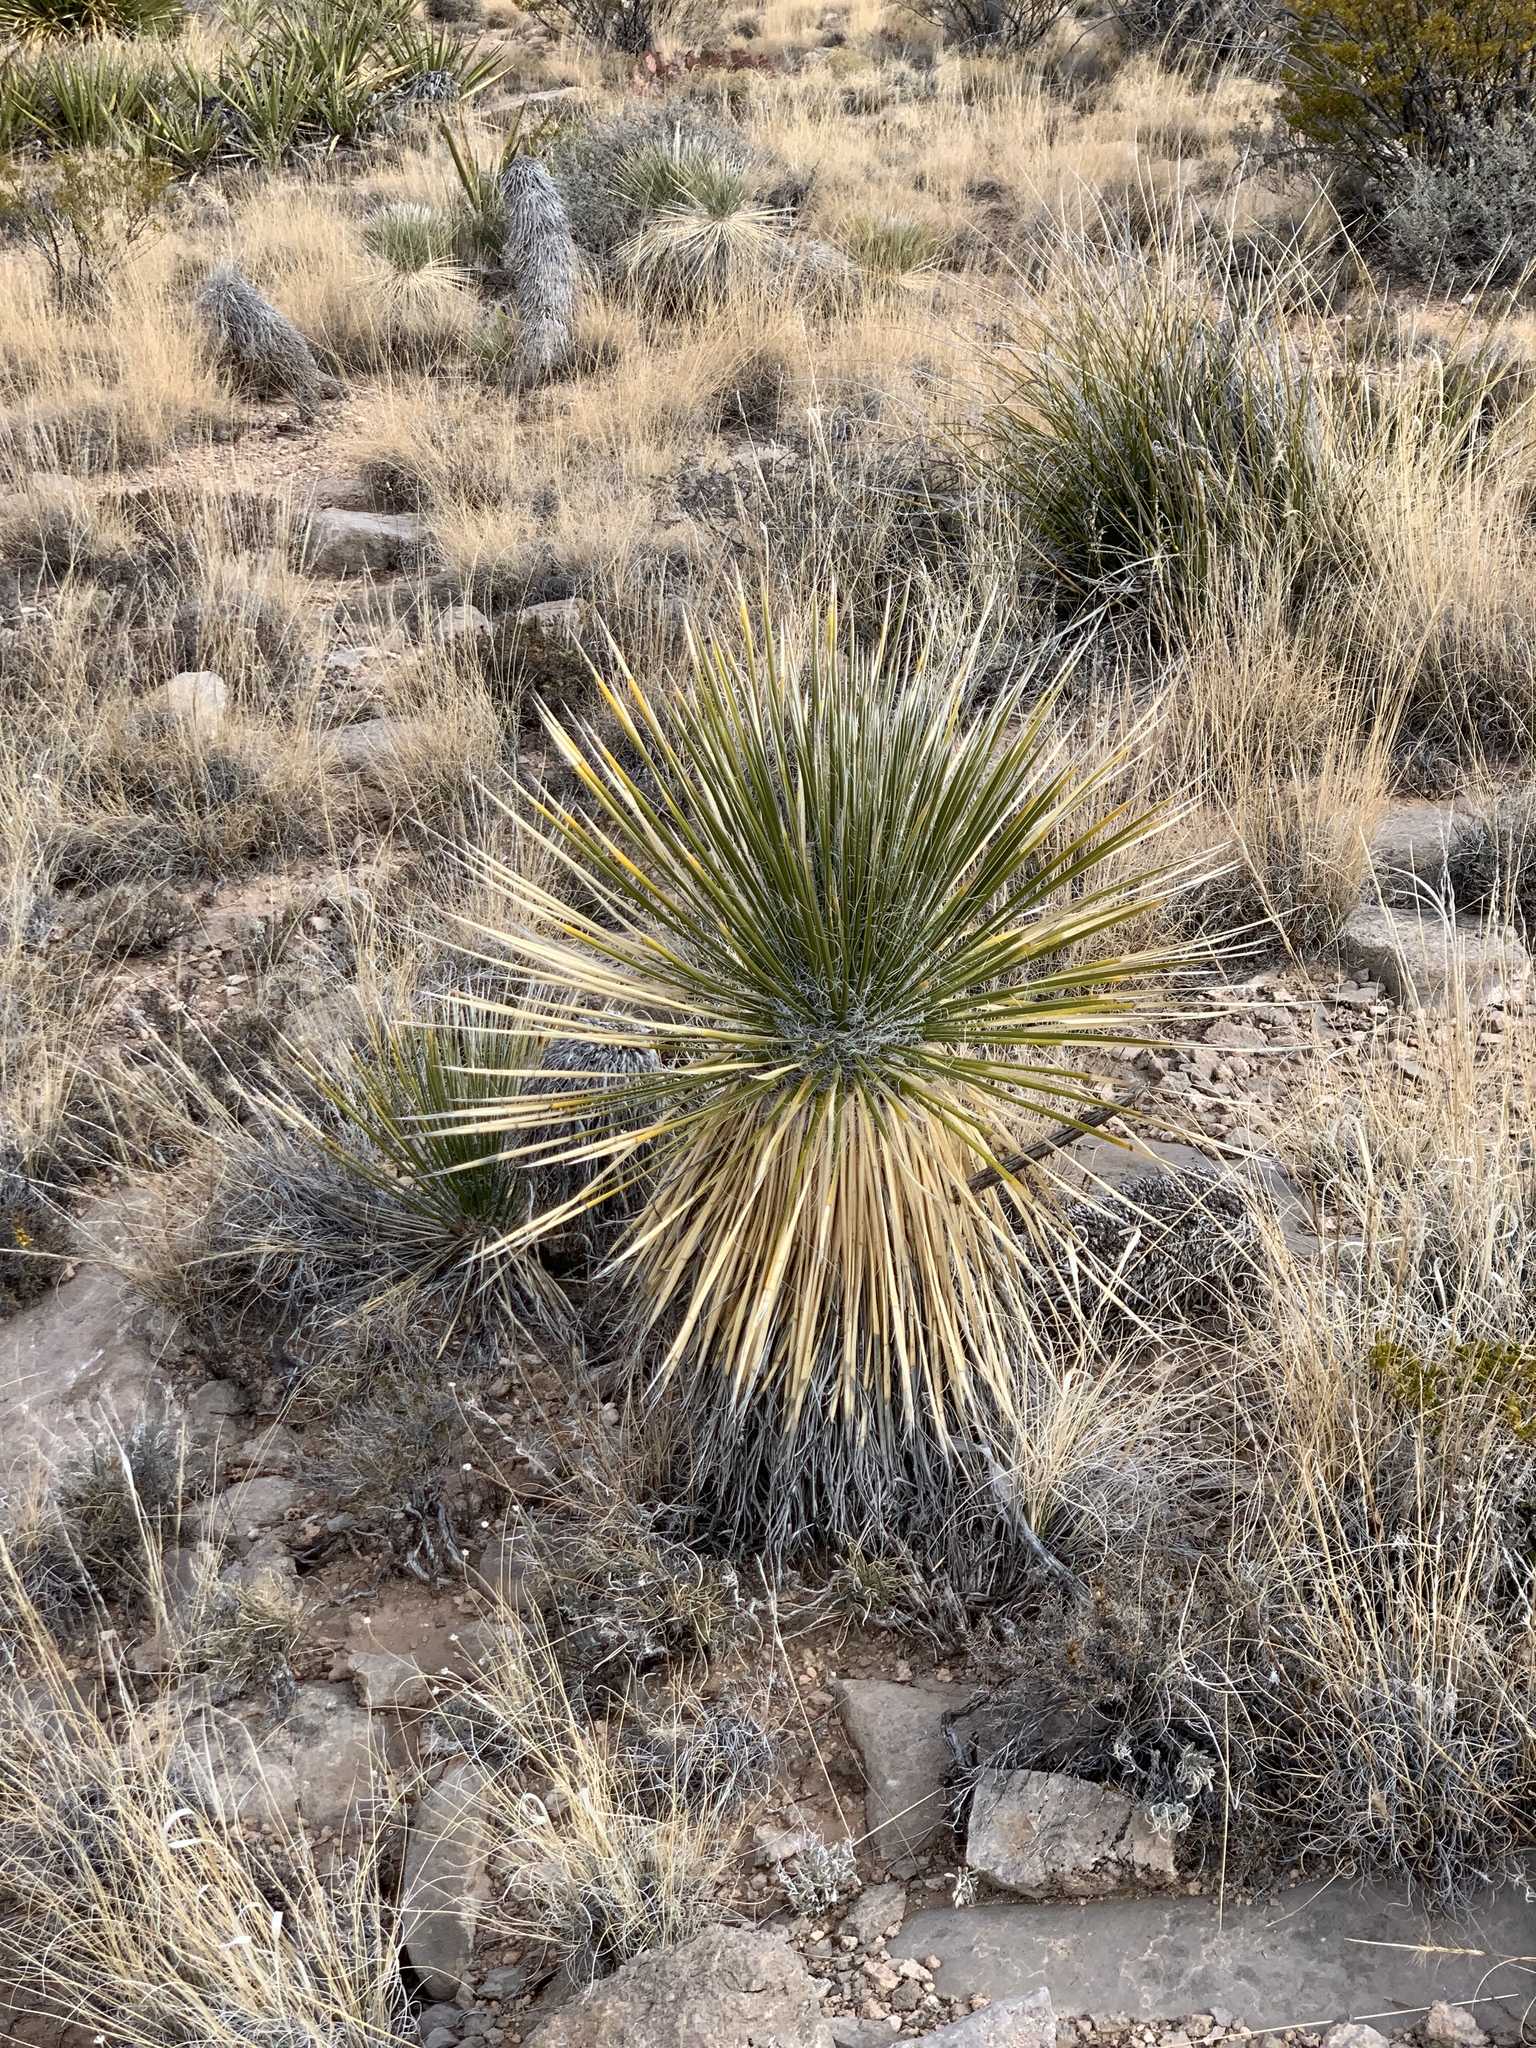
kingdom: Plantae
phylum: Tracheophyta
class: Liliopsida
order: Asparagales
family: Asparagaceae
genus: Yucca
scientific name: Yucca elata
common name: Palmella
